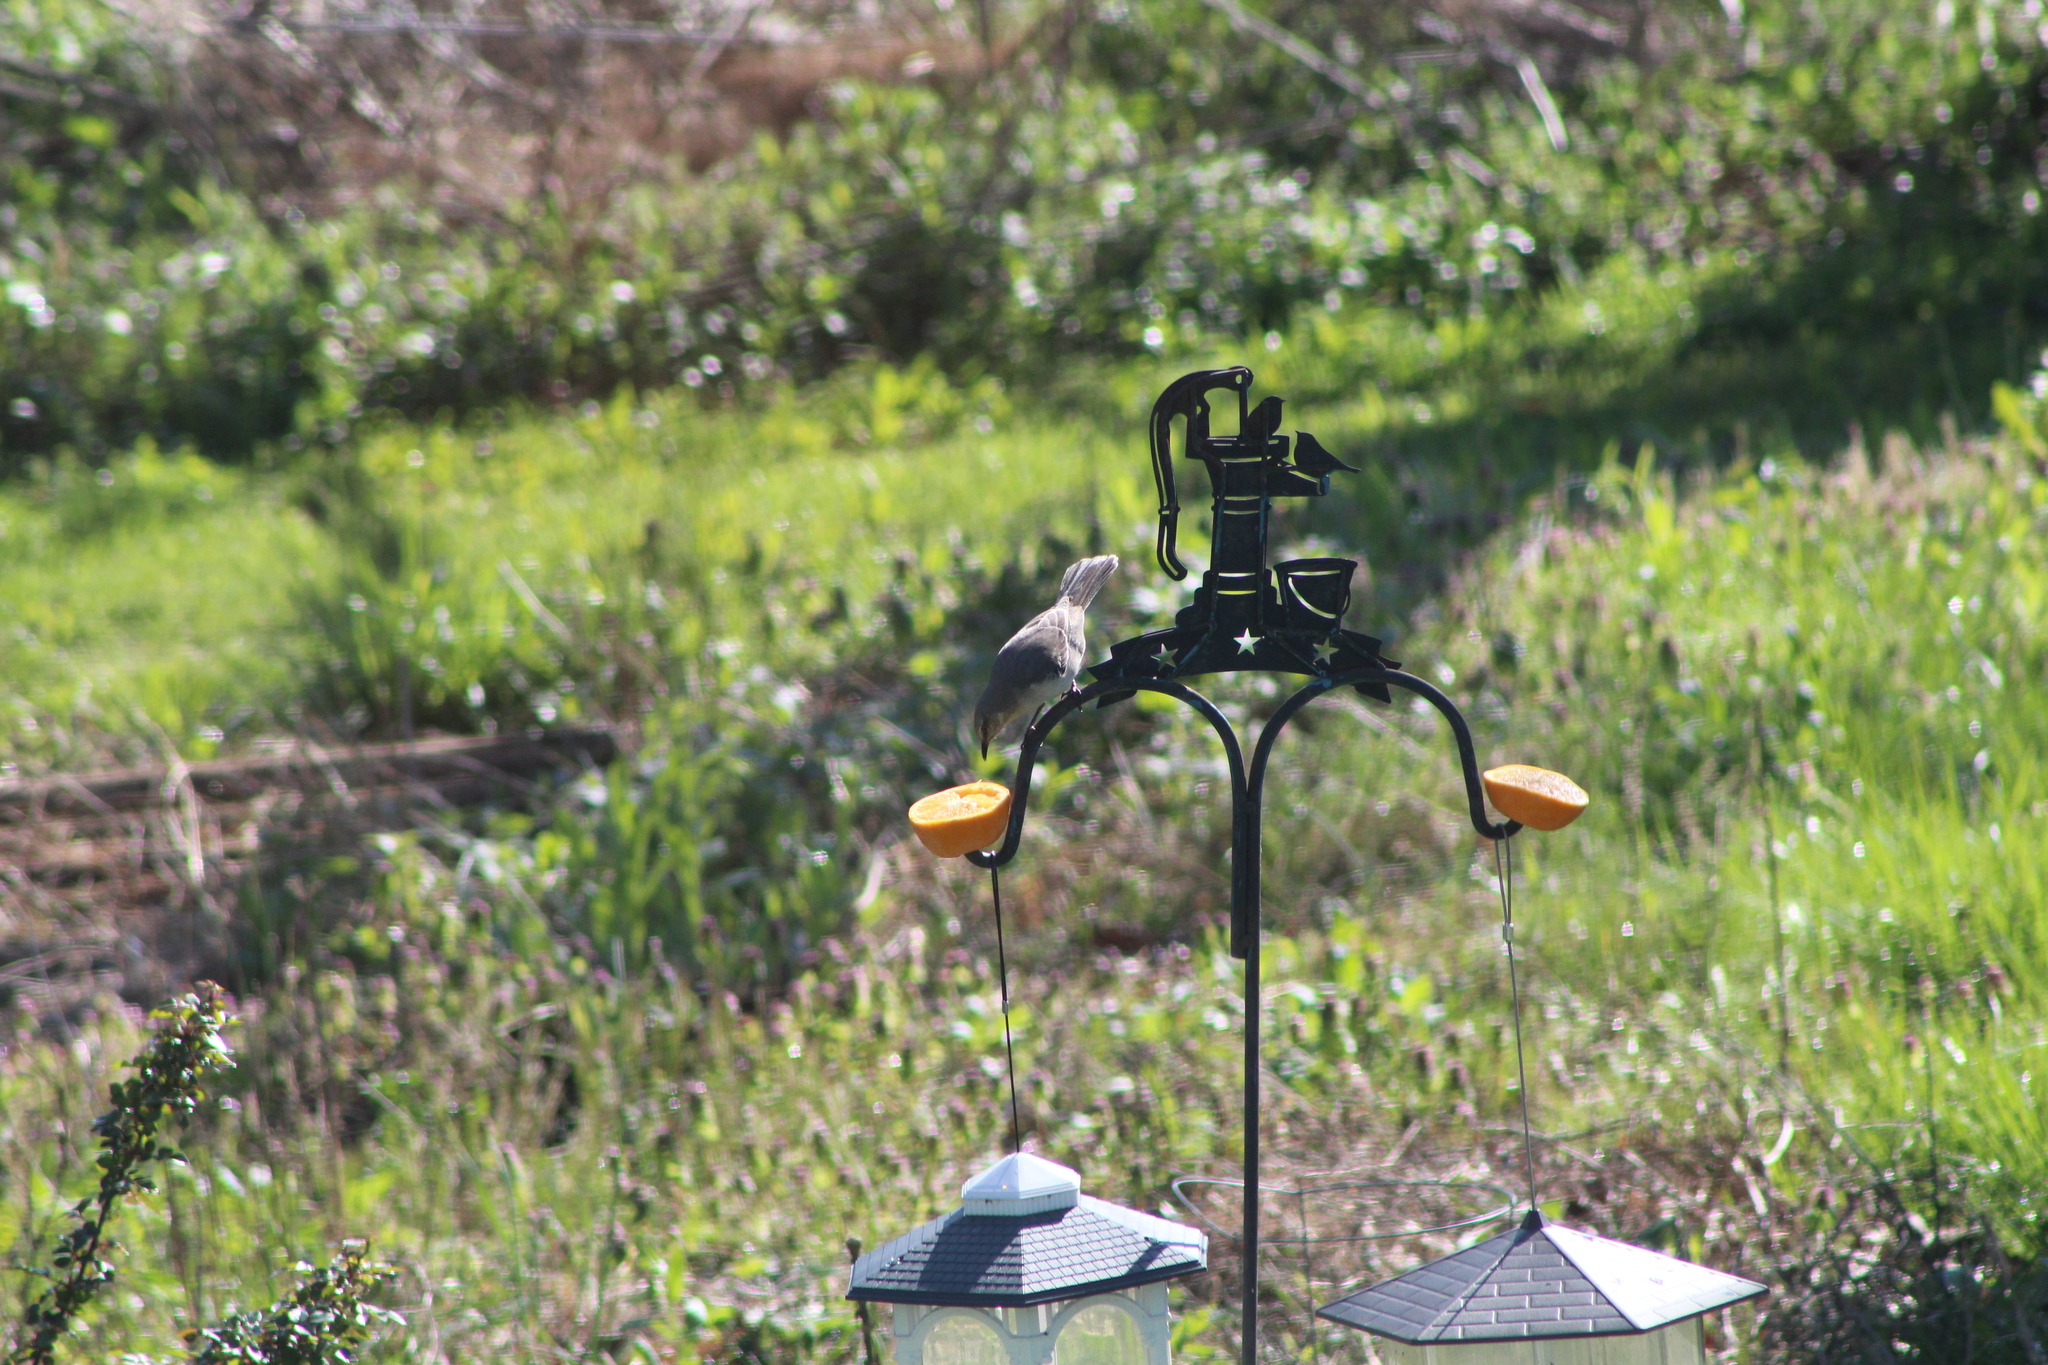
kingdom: Animalia
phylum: Chordata
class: Aves
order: Passeriformes
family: Mimidae
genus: Mimus
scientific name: Mimus polyglottos
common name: Northern mockingbird
